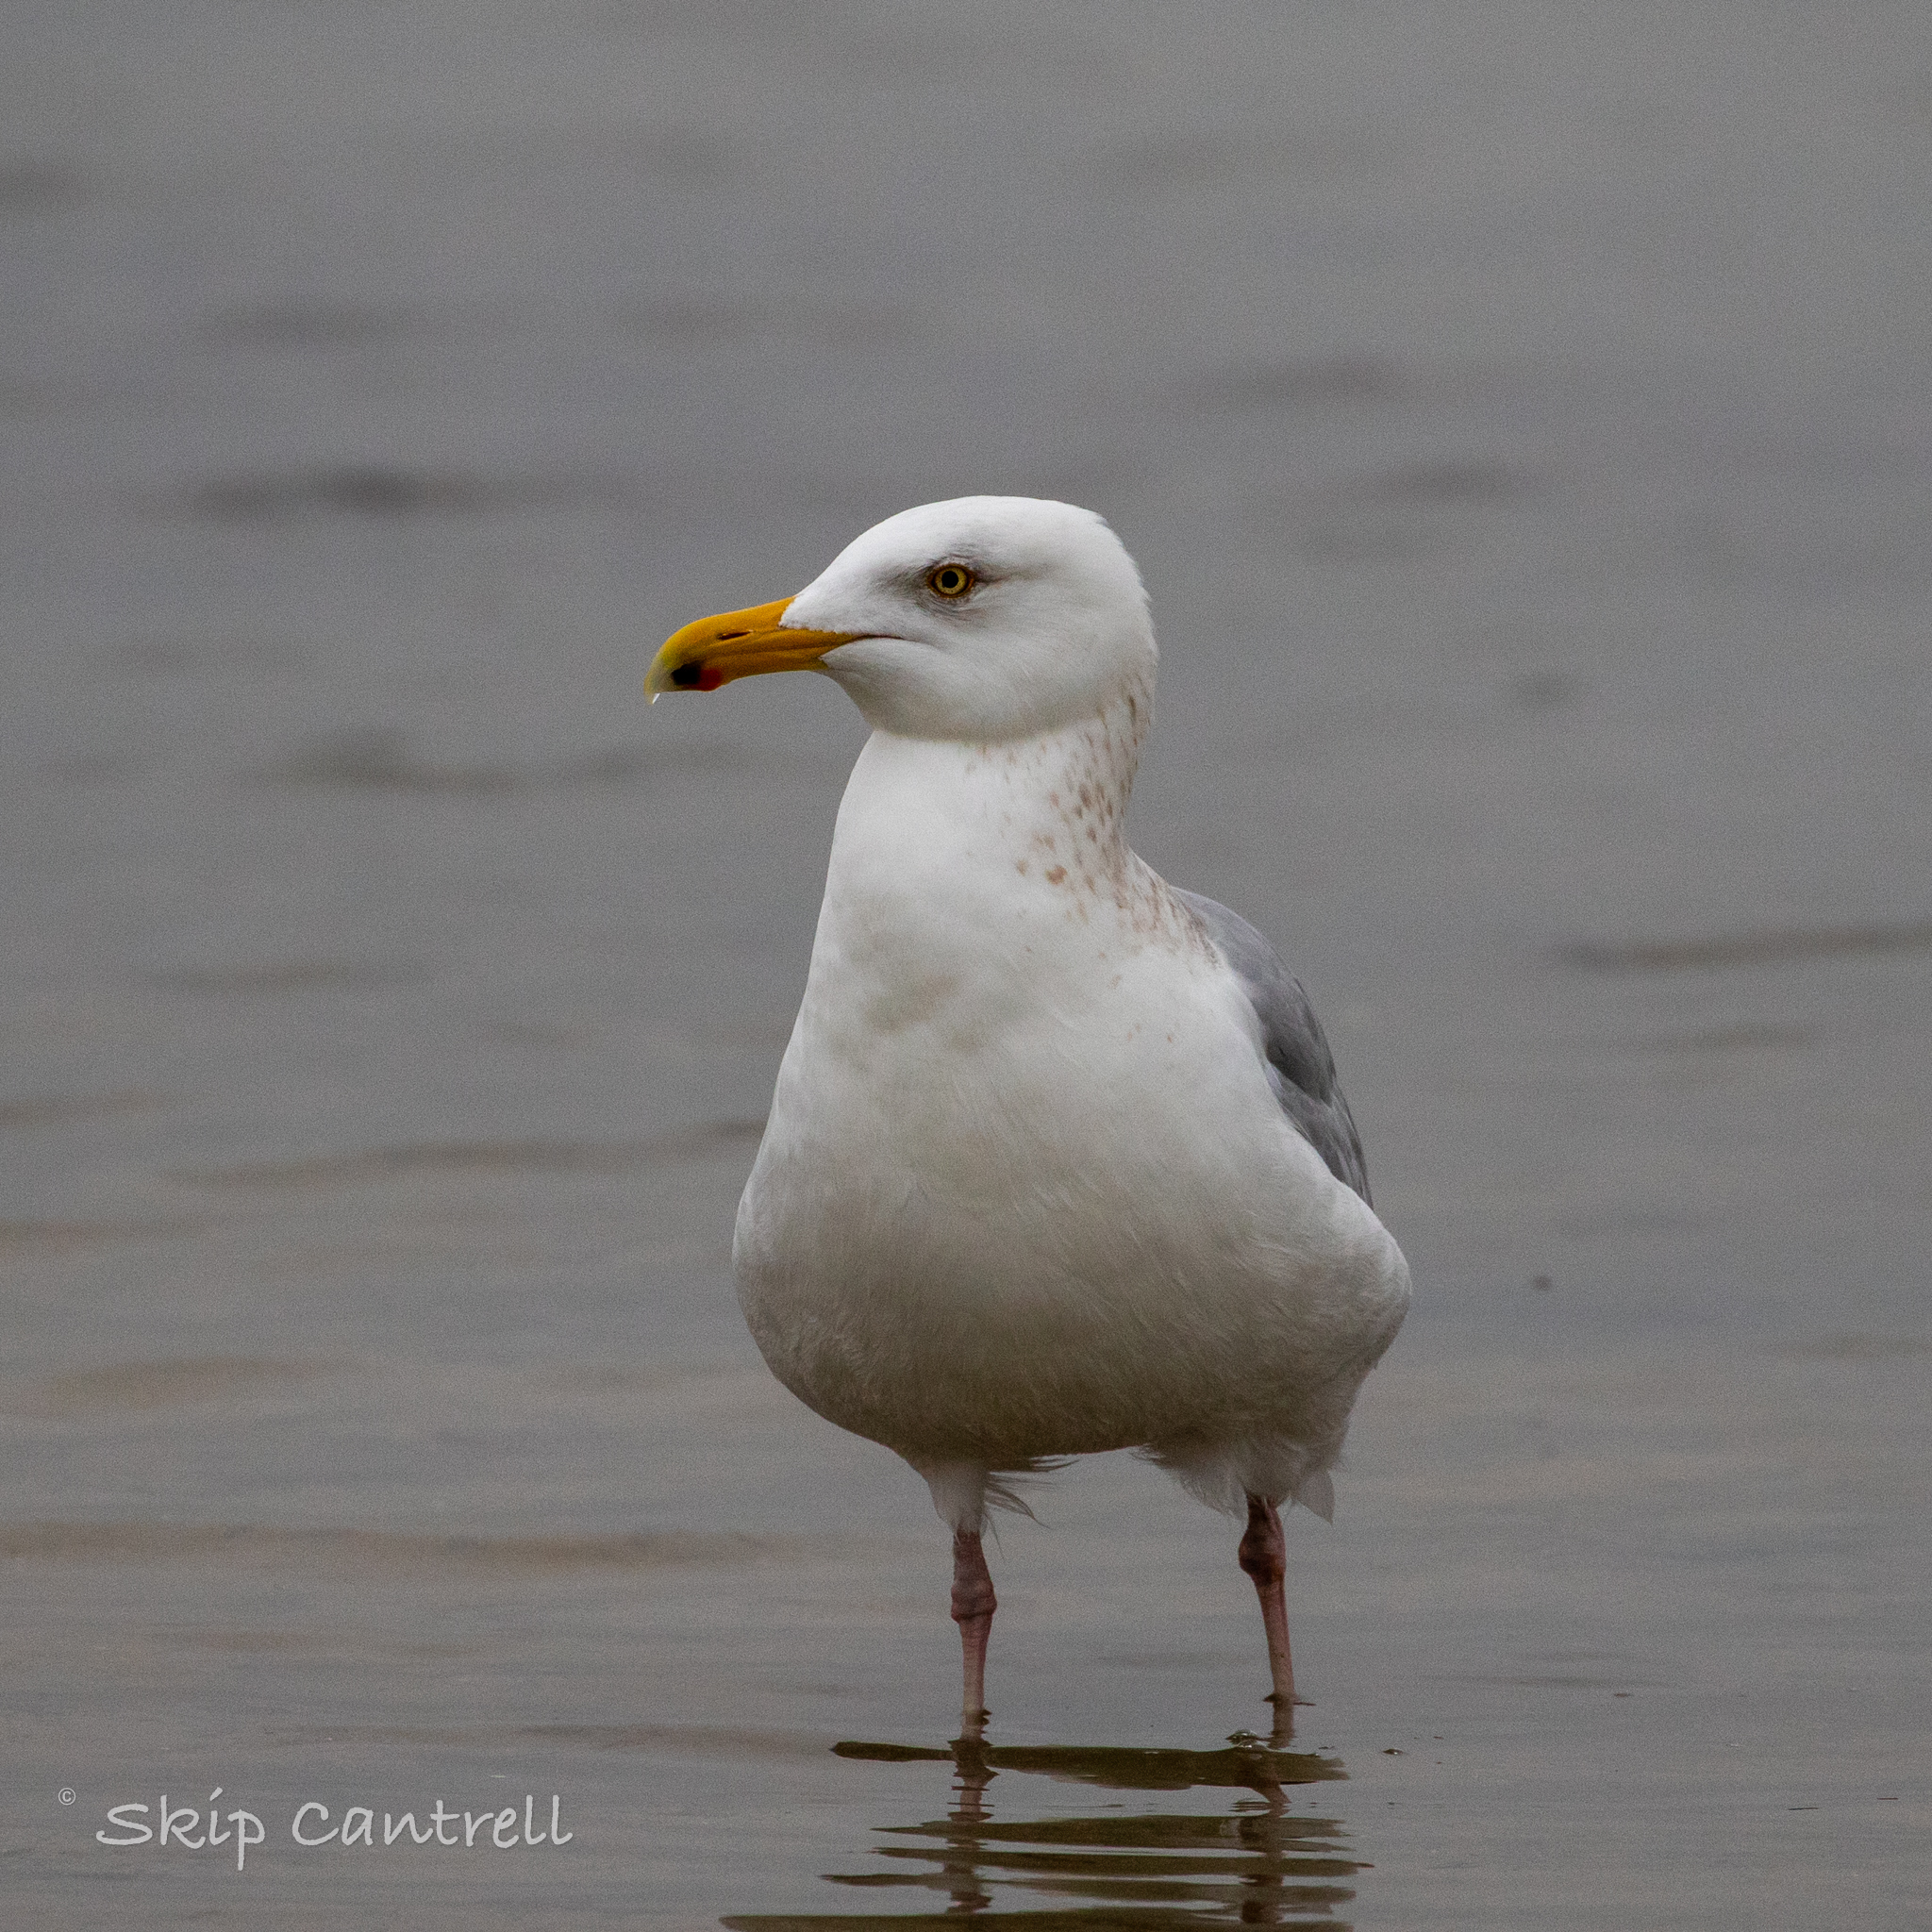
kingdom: Animalia
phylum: Chordata
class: Aves
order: Charadriiformes
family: Laridae
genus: Larus
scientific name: Larus argentatus
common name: Herring gull
